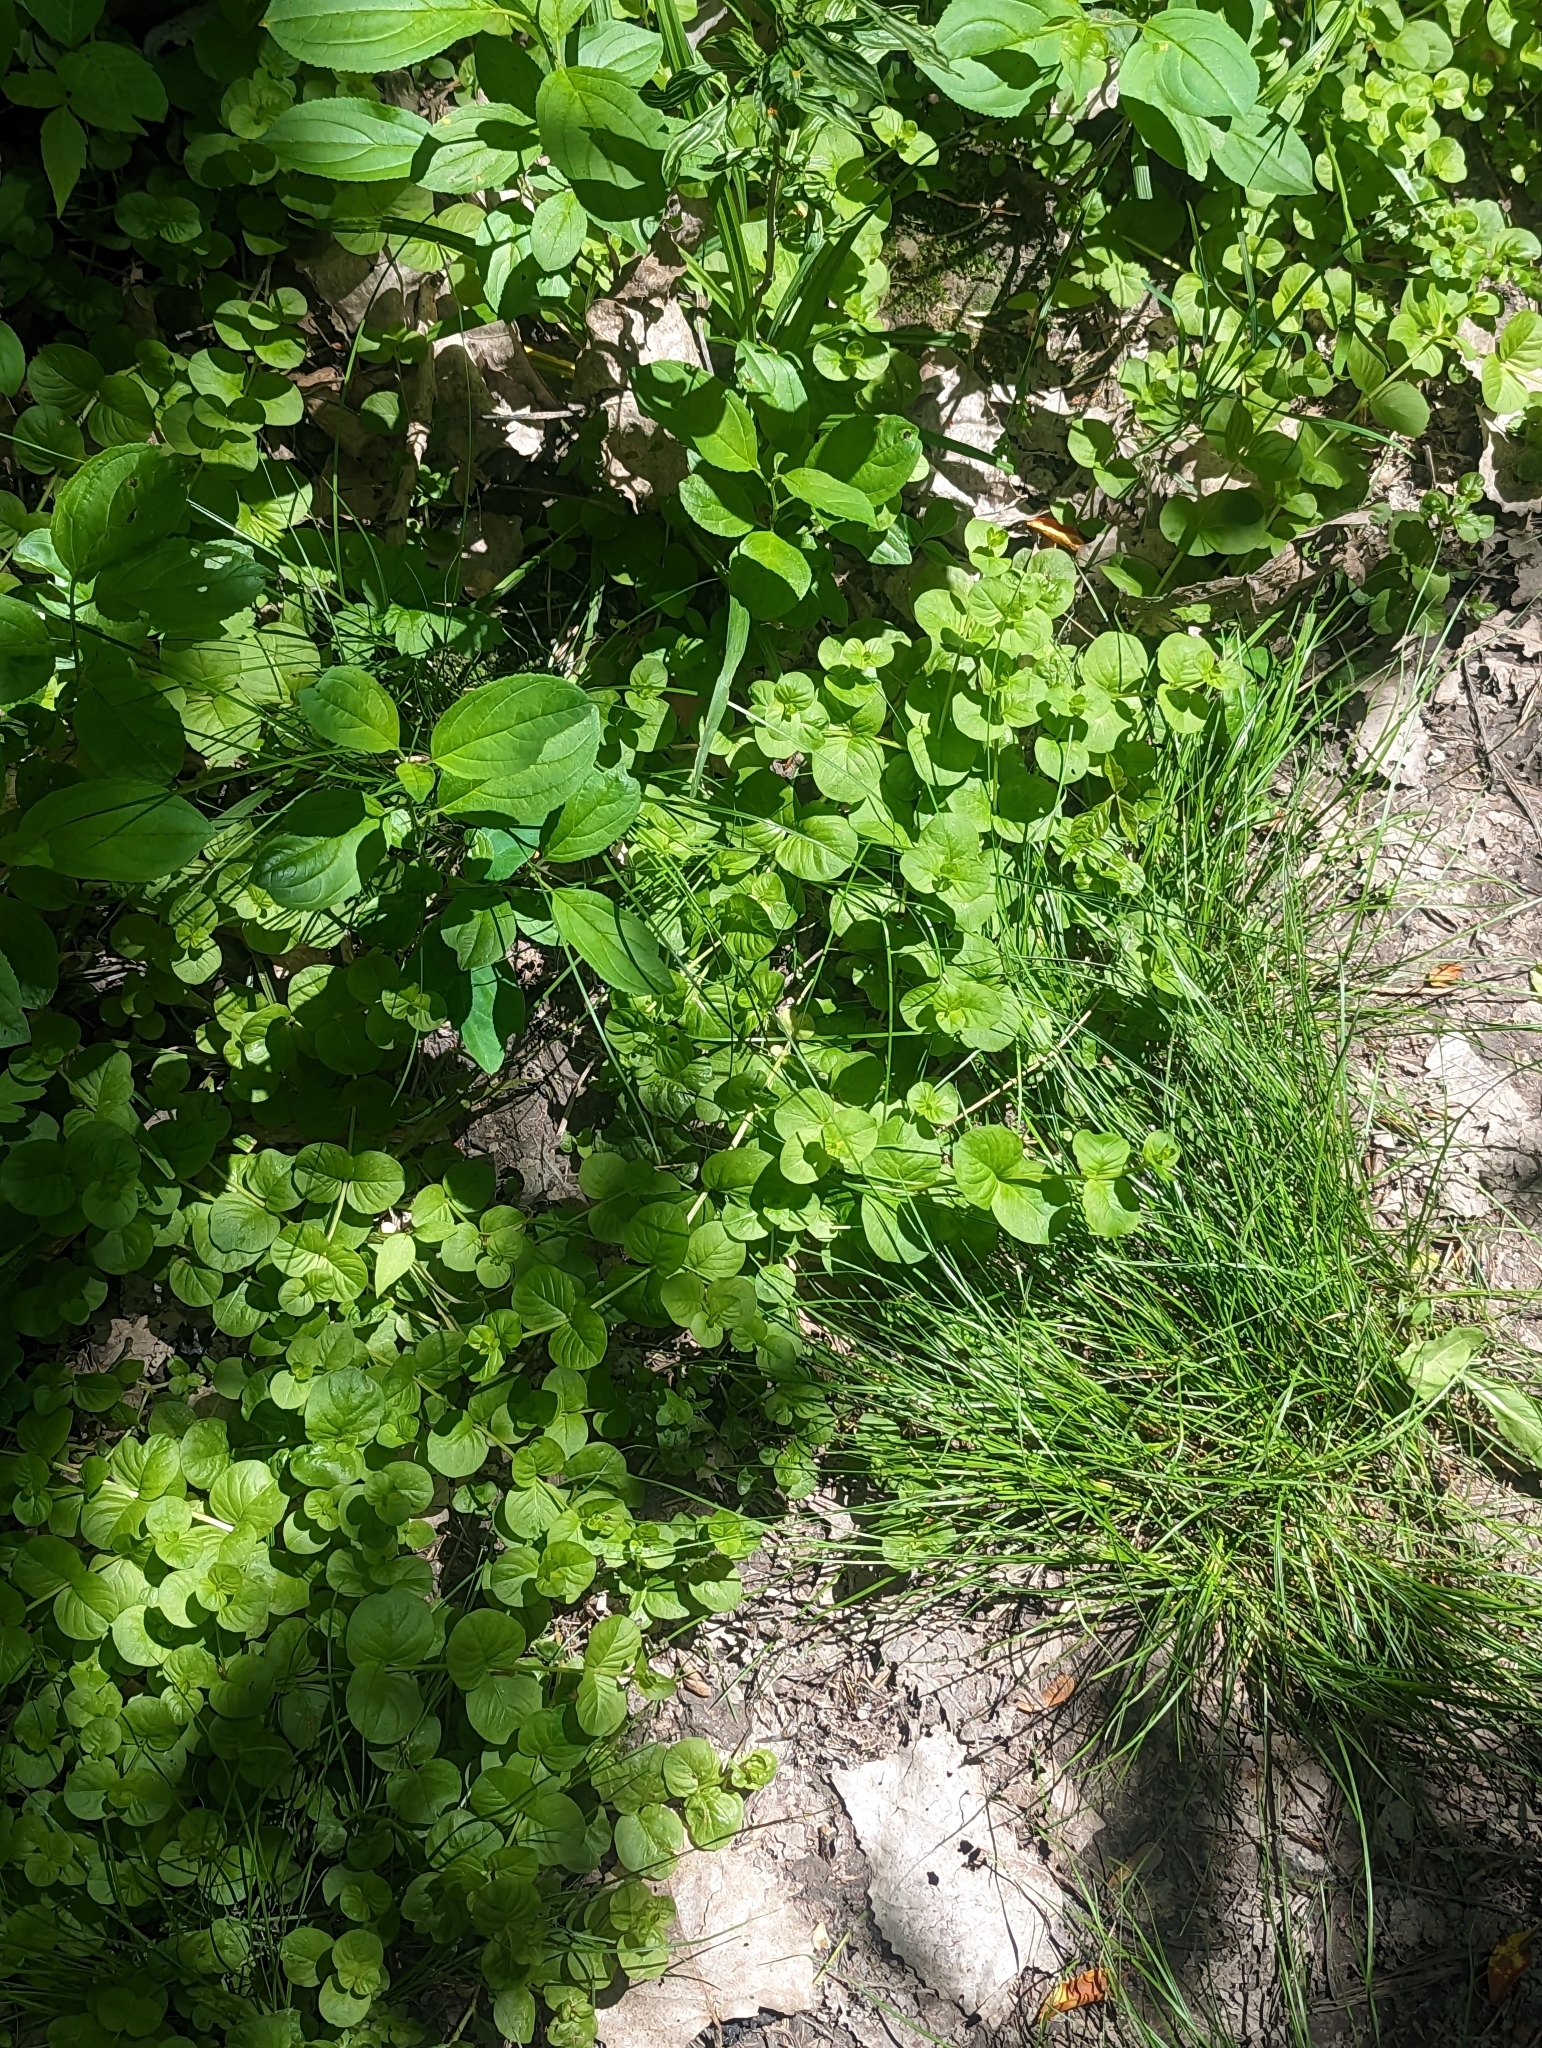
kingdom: Plantae
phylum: Tracheophyta
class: Magnoliopsida
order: Ericales
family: Primulaceae
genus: Lysimachia
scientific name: Lysimachia nummularia
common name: Moneywort
